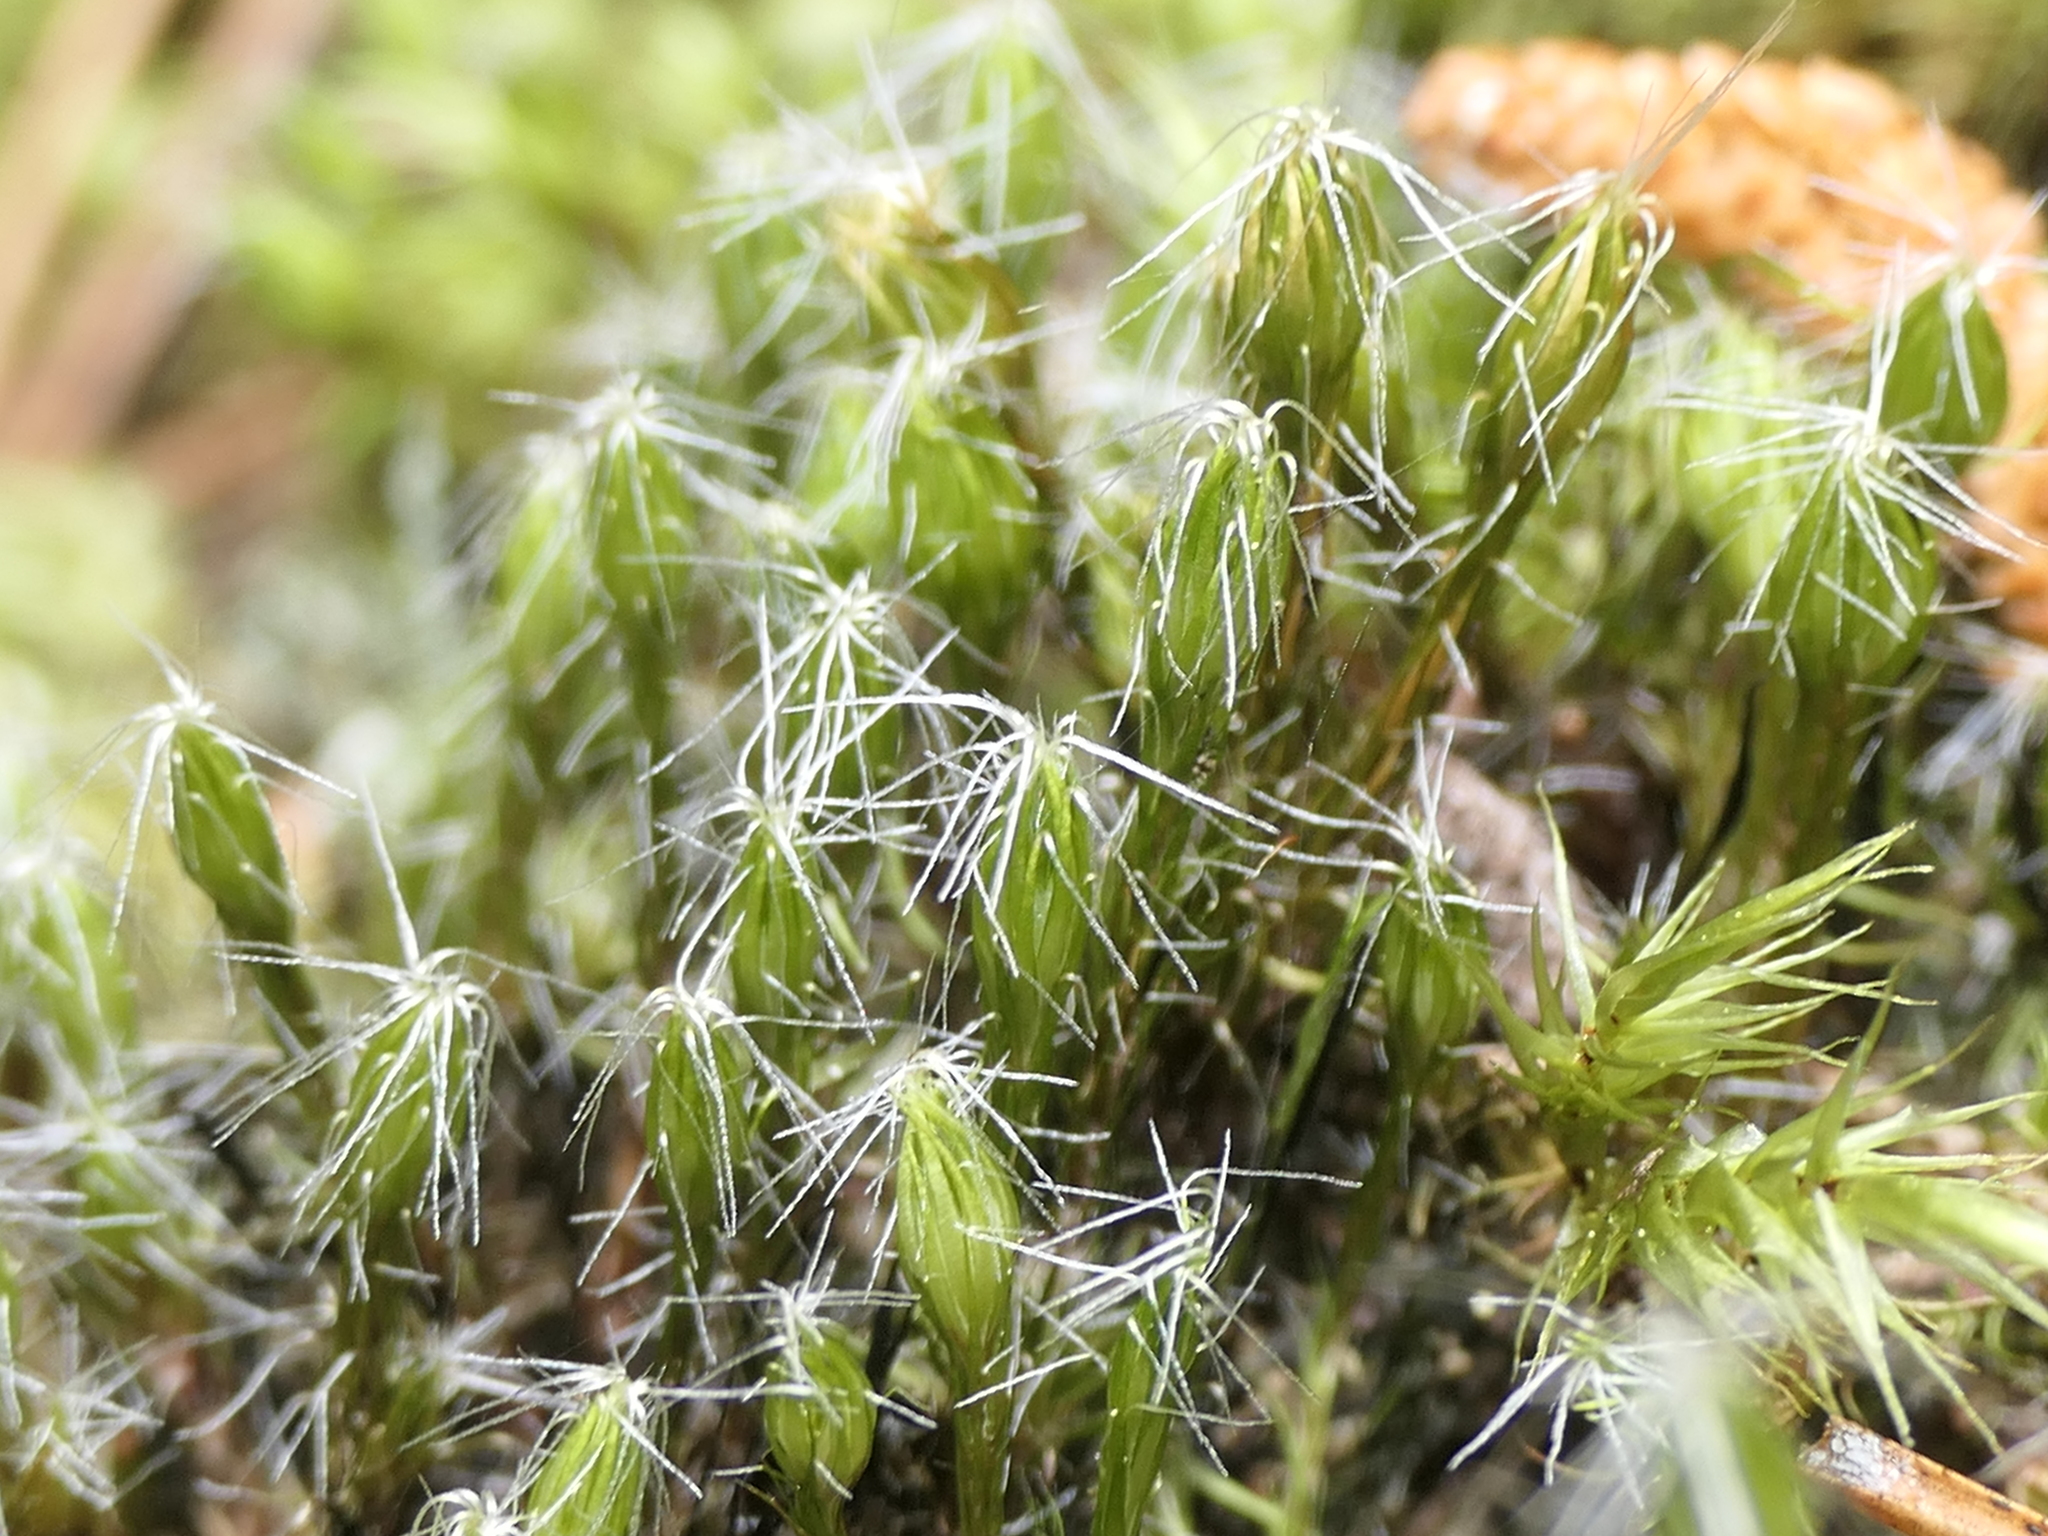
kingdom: Plantae
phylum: Bryophyta
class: Bryopsida
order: Dicranales
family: Leucobryaceae
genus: Campylopus
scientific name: Campylopus introflexus
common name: Heath star moss
